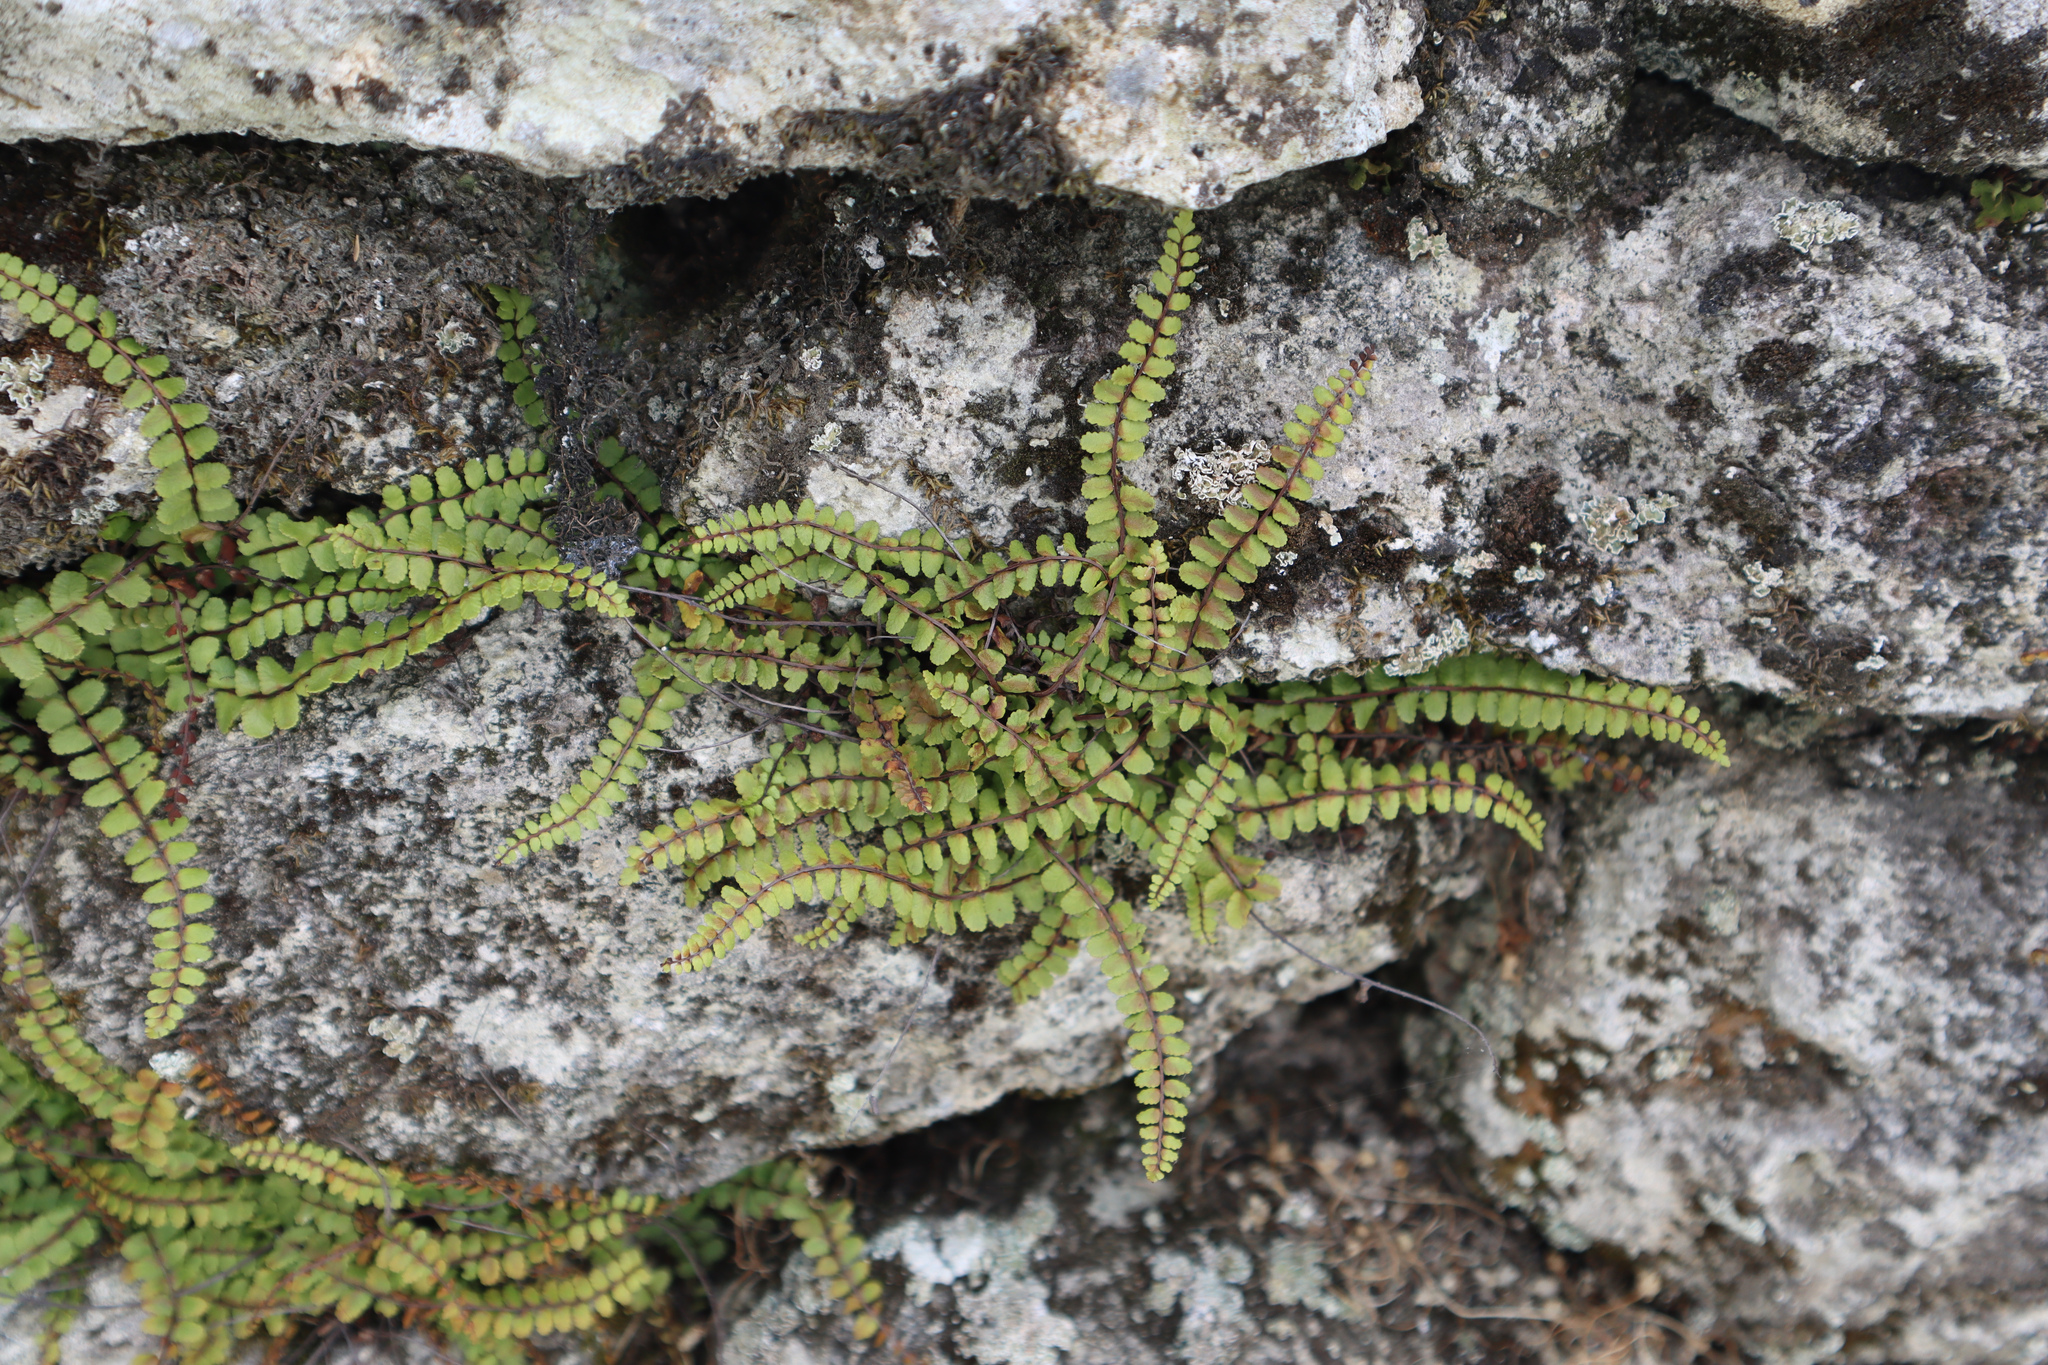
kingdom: Plantae
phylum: Tracheophyta
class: Polypodiopsida
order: Polypodiales
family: Aspleniaceae
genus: Asplenium
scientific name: Asplenium trichomanes
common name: Maidenhair spleenwort
